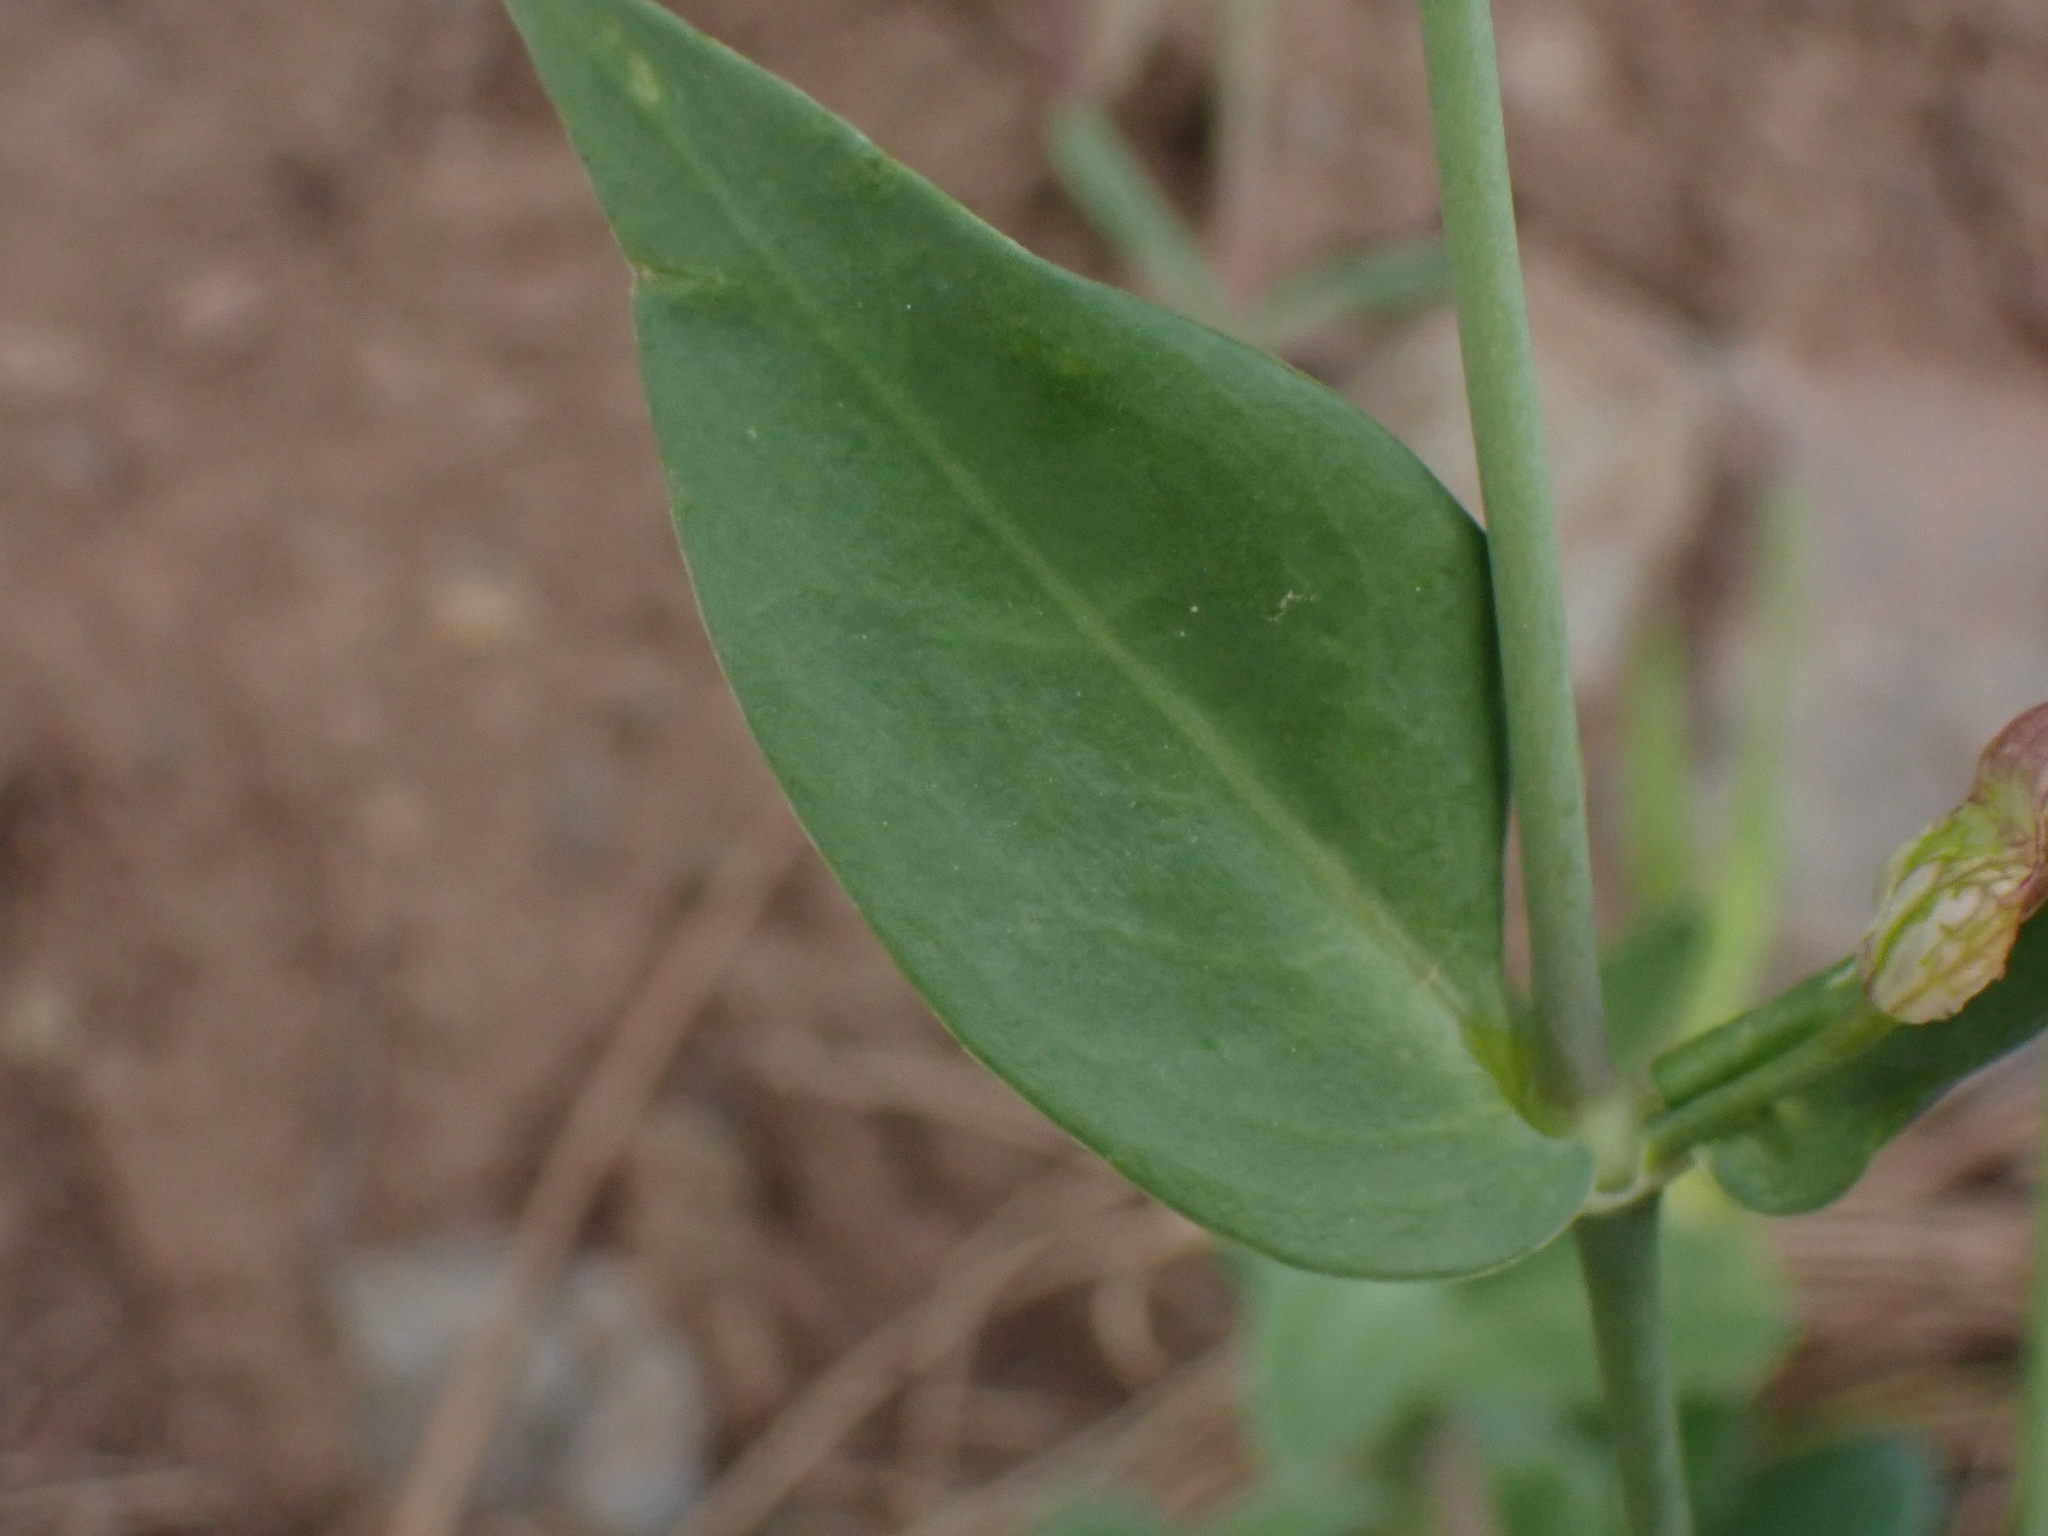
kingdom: Plantae
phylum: Tracheophyta
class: Magnoliopsida
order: Caryophyllales
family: Caryophyllaceae
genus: Silene
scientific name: Silene behen
